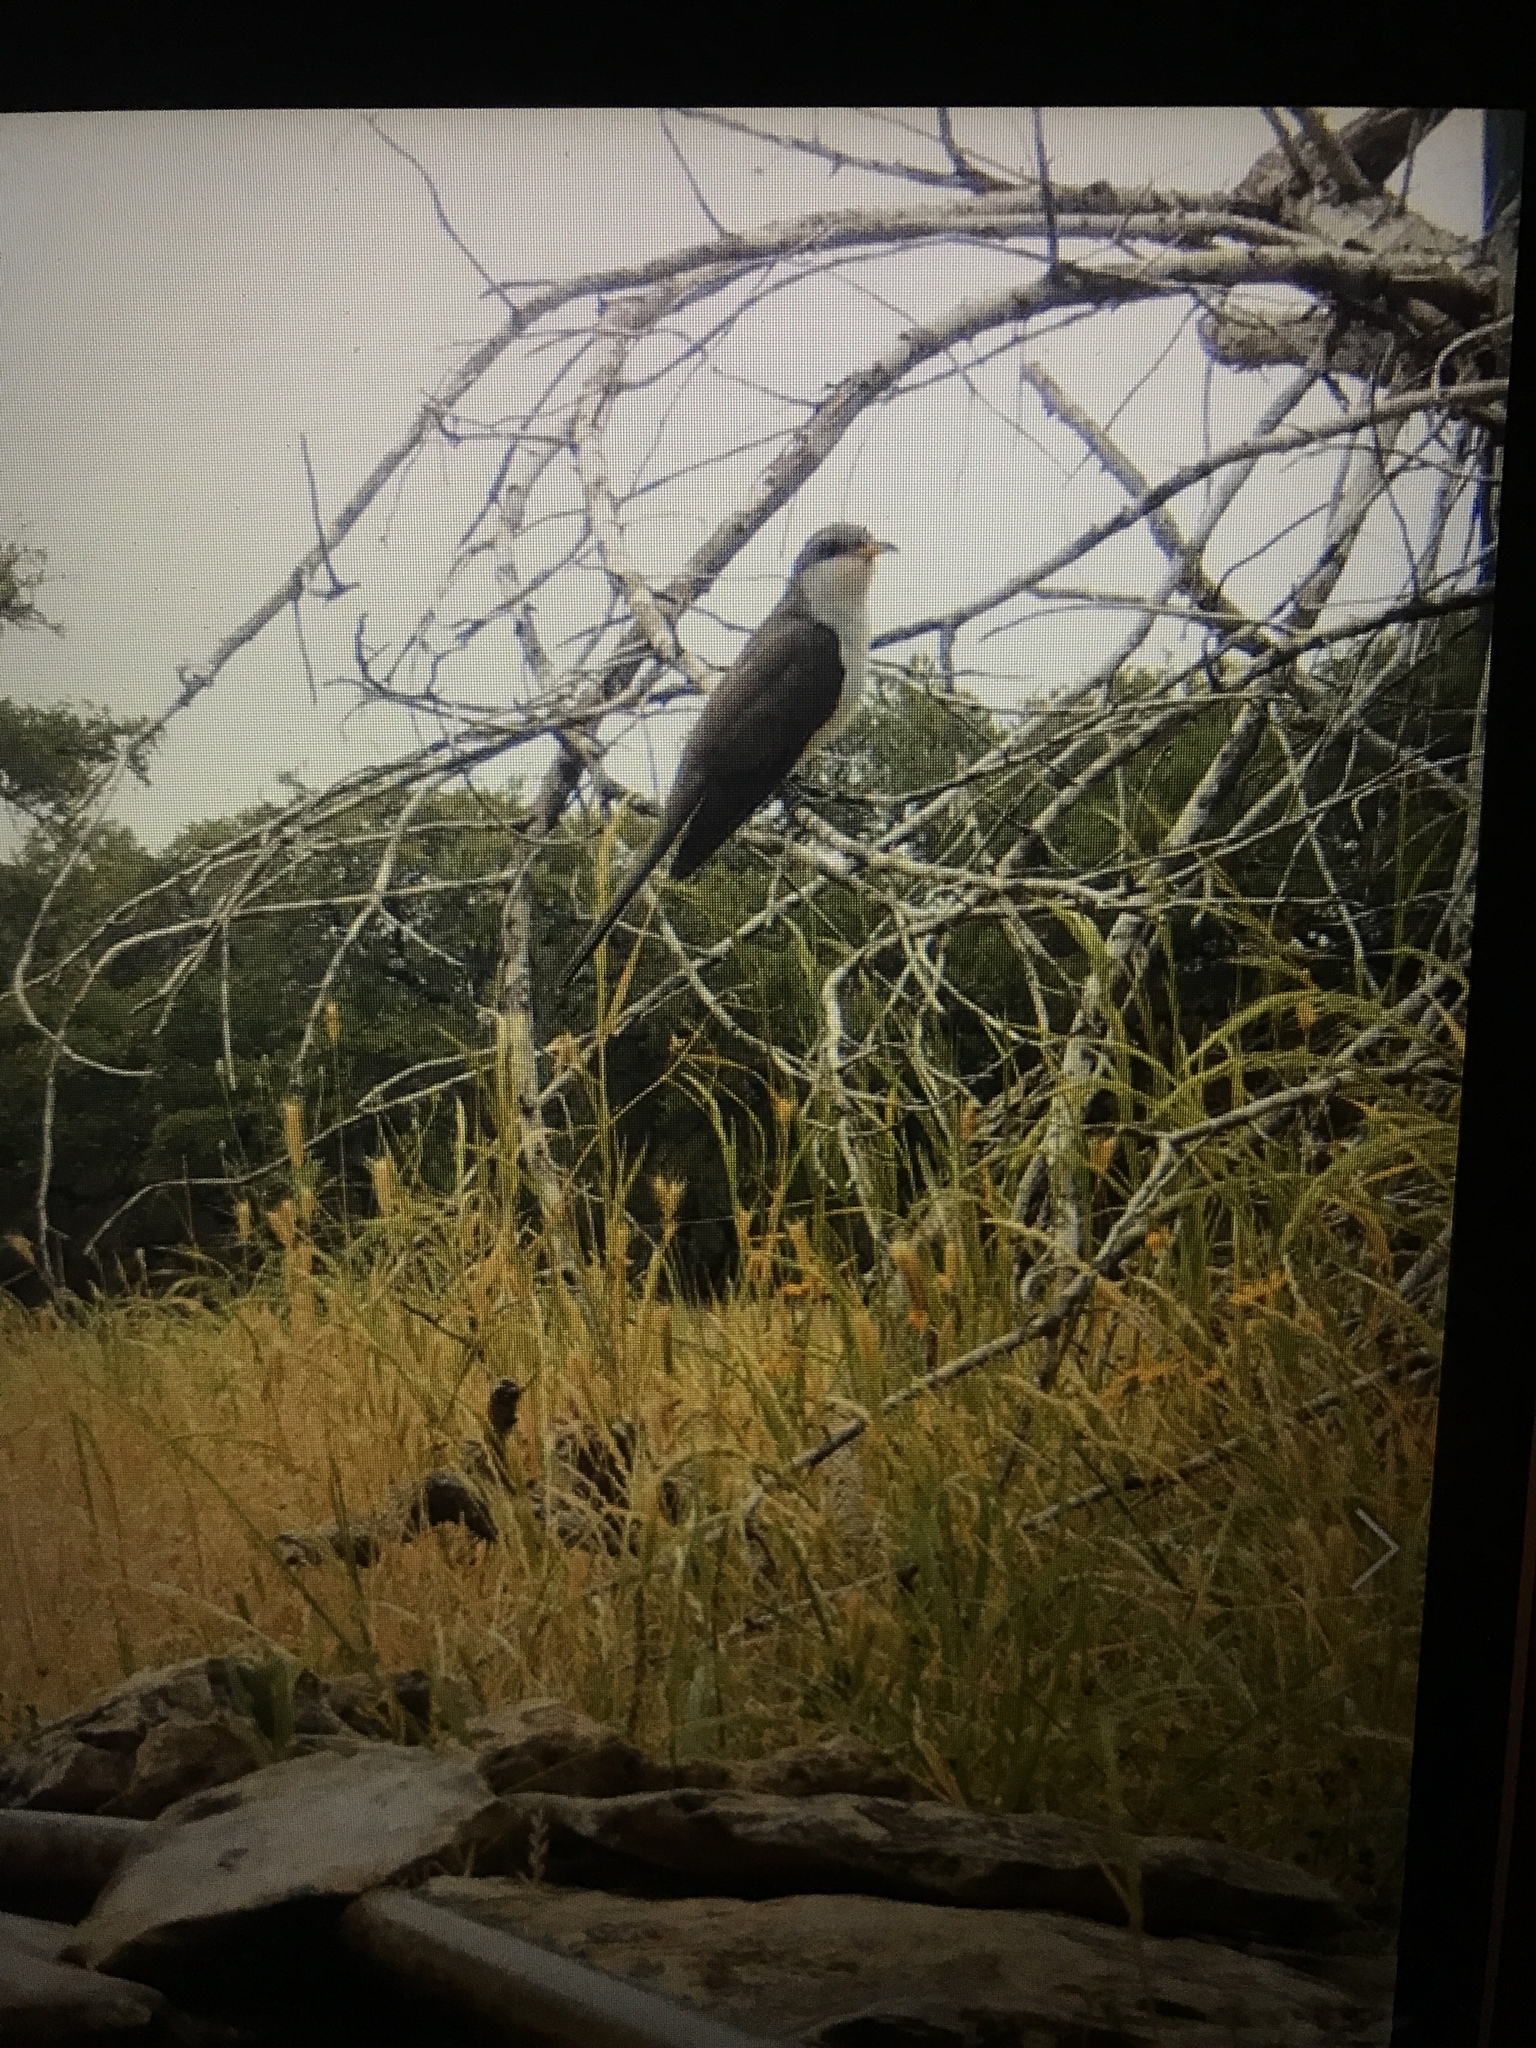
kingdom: Animalia
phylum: Chordata
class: Aves
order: Cuculiformes
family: Cuculidae
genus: Coccyzus
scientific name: Coccyzus americanus
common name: Yellow-billed cuckoo
